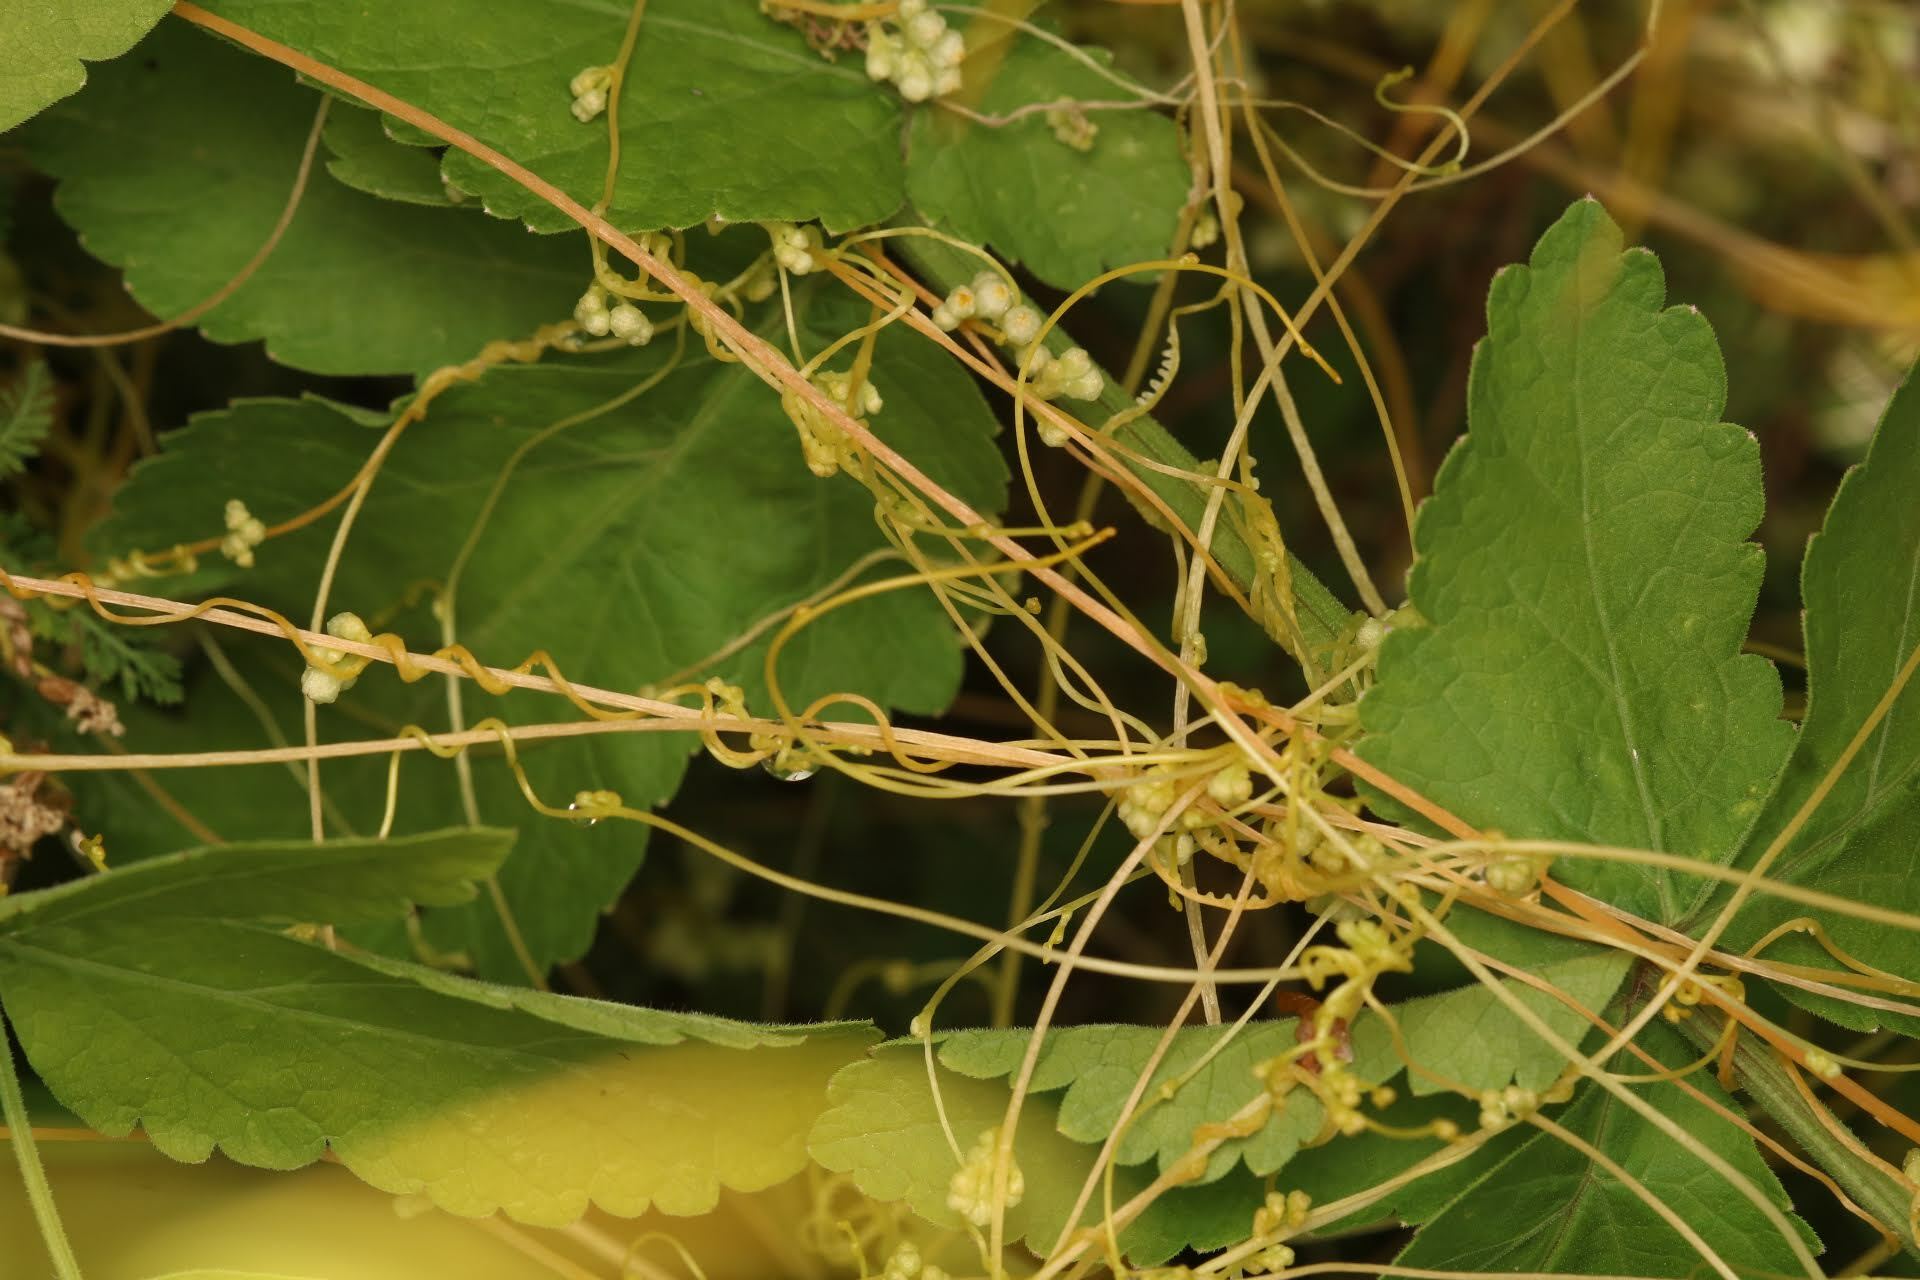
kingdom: Plantae
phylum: Tracheophyta
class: Magnoliopsida
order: Solanales
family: Convolvulaceae
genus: Cuscuta
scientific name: Cuscuta campestris
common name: Yellow dodder
